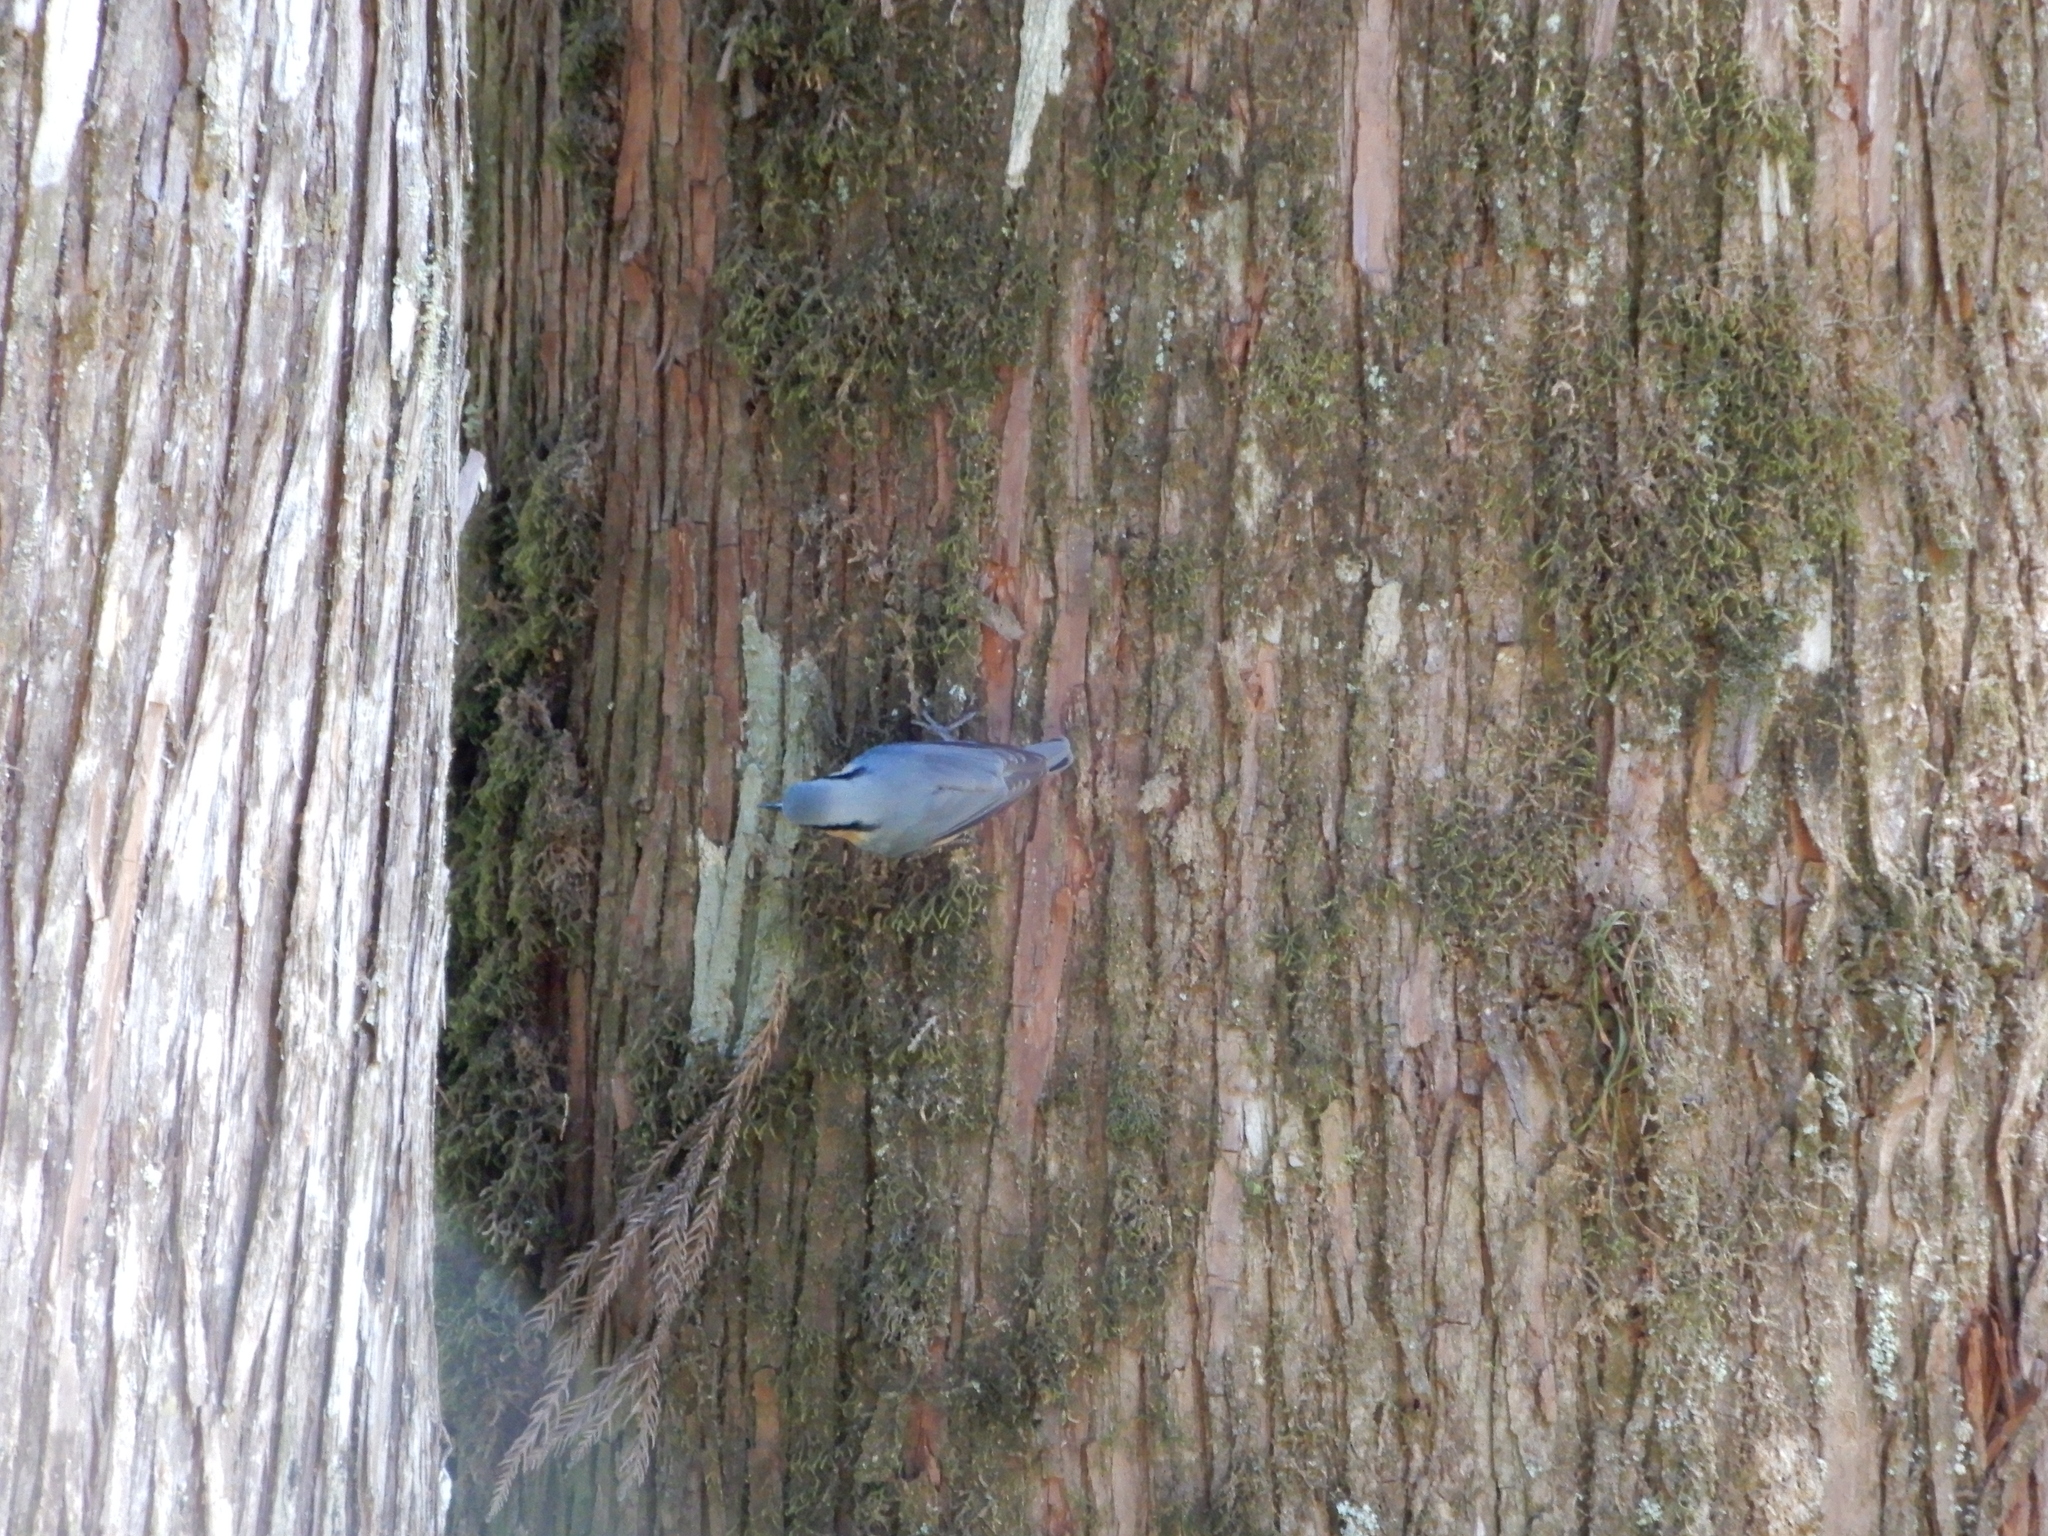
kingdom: Animalia
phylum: Chordata
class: Aves
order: Passeriformes
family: Sittidae
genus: Sitta
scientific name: Sitta europaea
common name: Eurasian nuthatch
